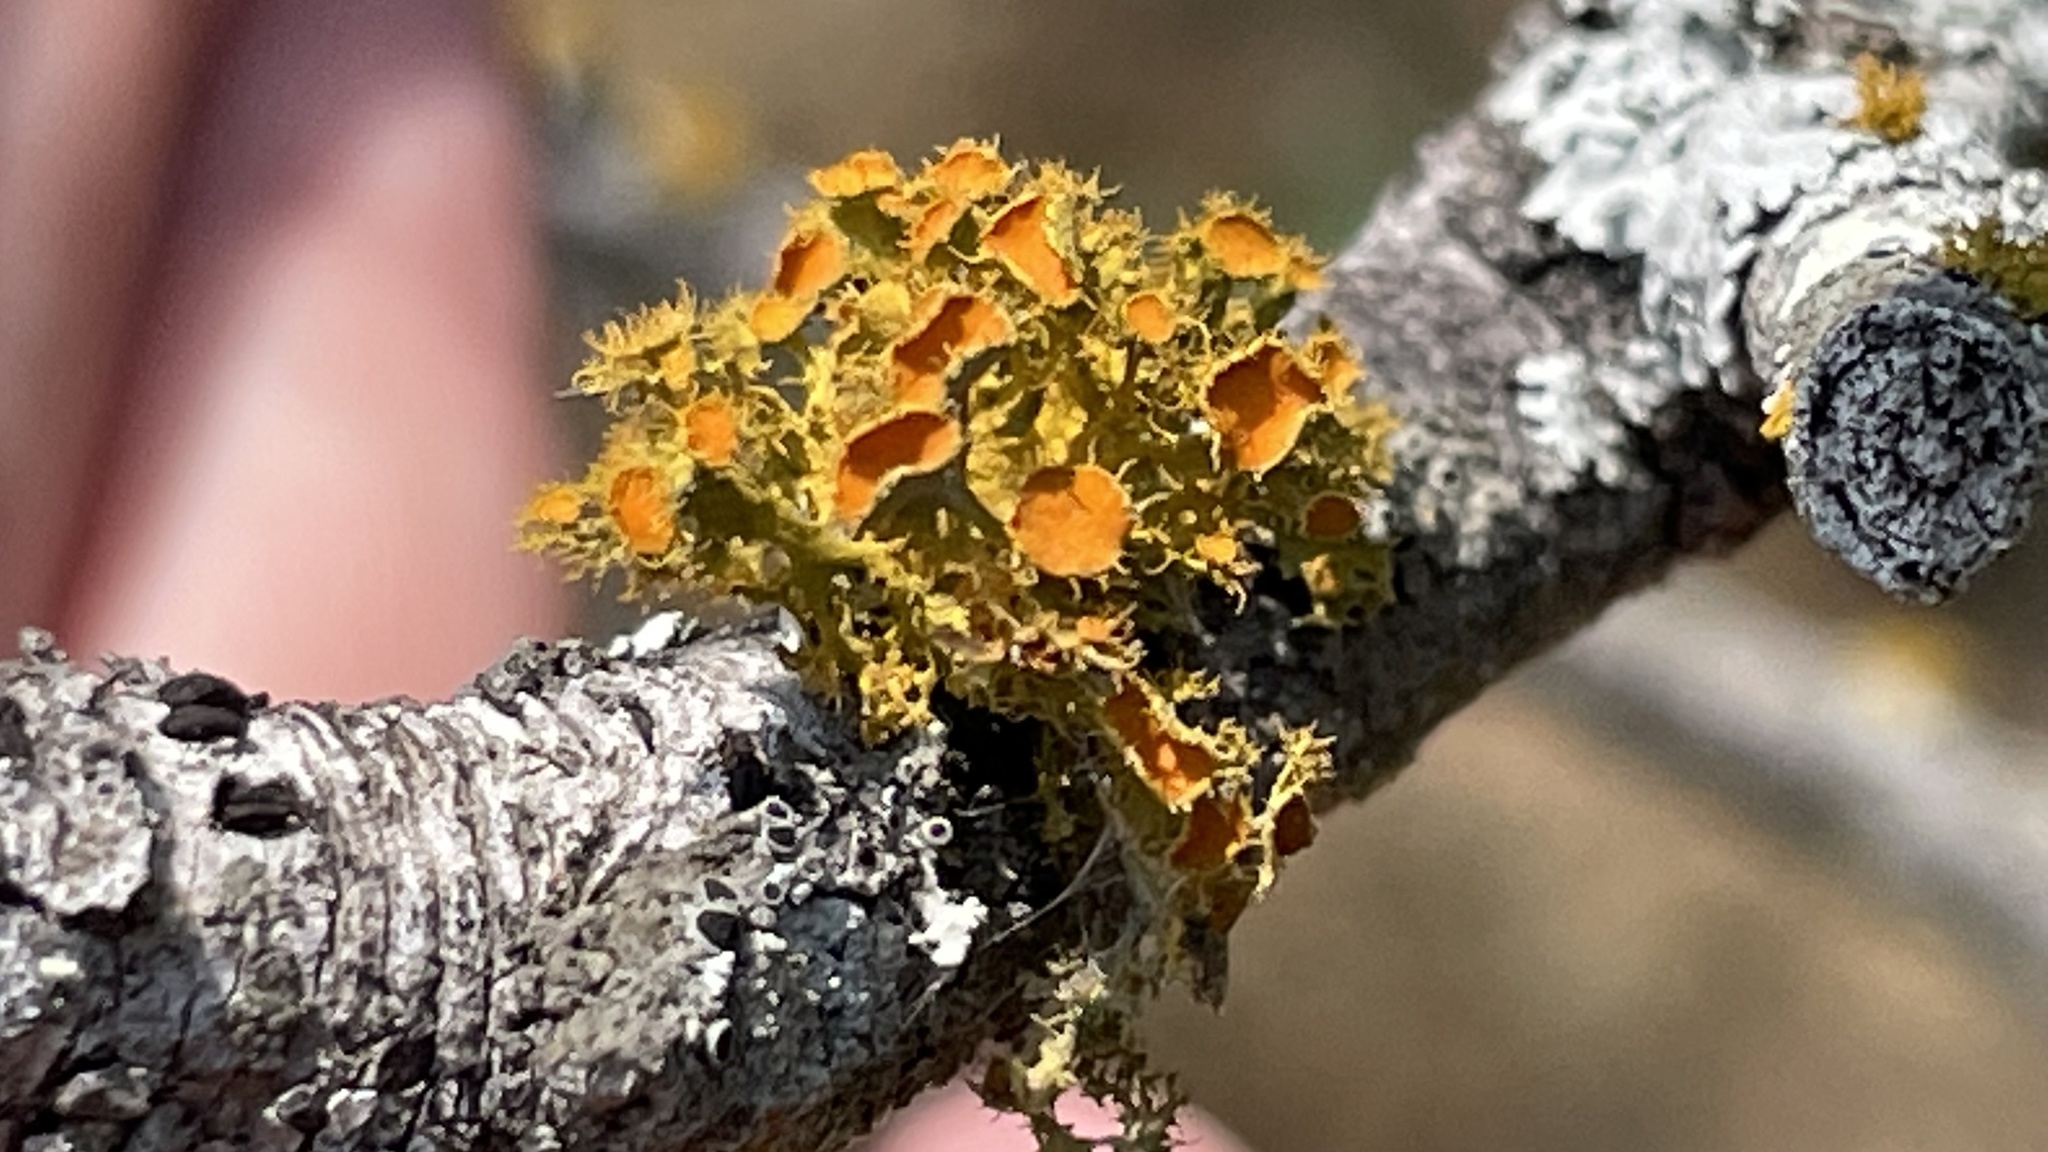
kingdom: Fungi
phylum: Ascomycota
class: Lecanoromycetes
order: Teloschistales
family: Teloschistaceae
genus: Niorma
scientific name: Niorma chrysophthalma
